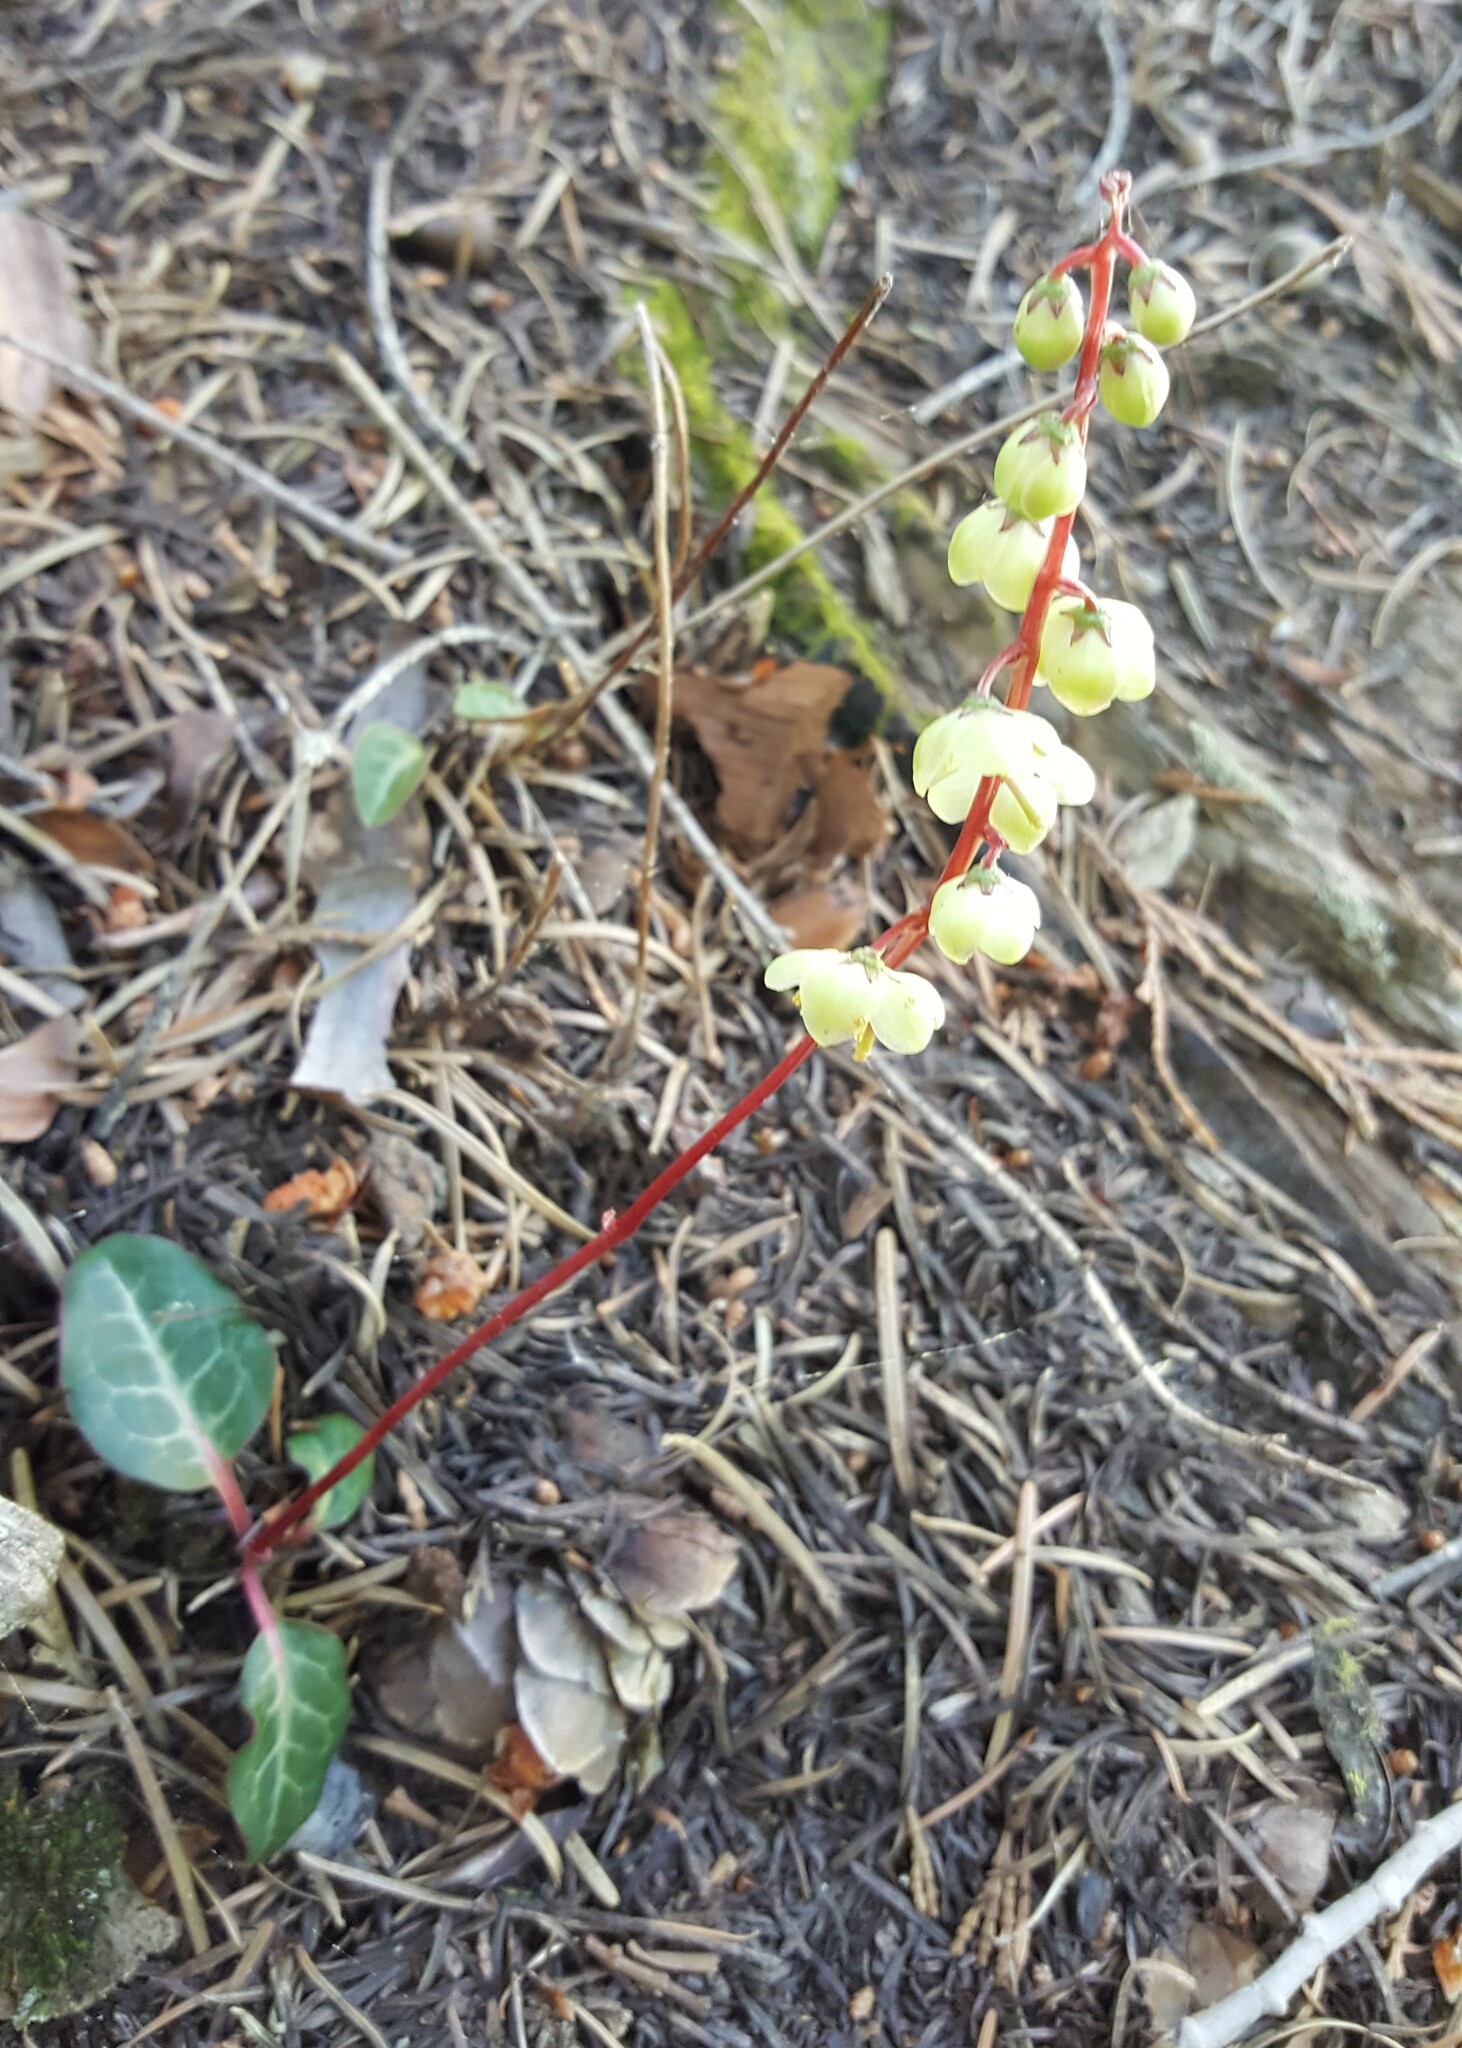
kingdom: Plantae
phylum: Tracheophyta
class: Magnoliopsida
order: Ericales
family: Ericaceae
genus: Pyrola
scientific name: Pyrola picta
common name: White-vein wintergreen
